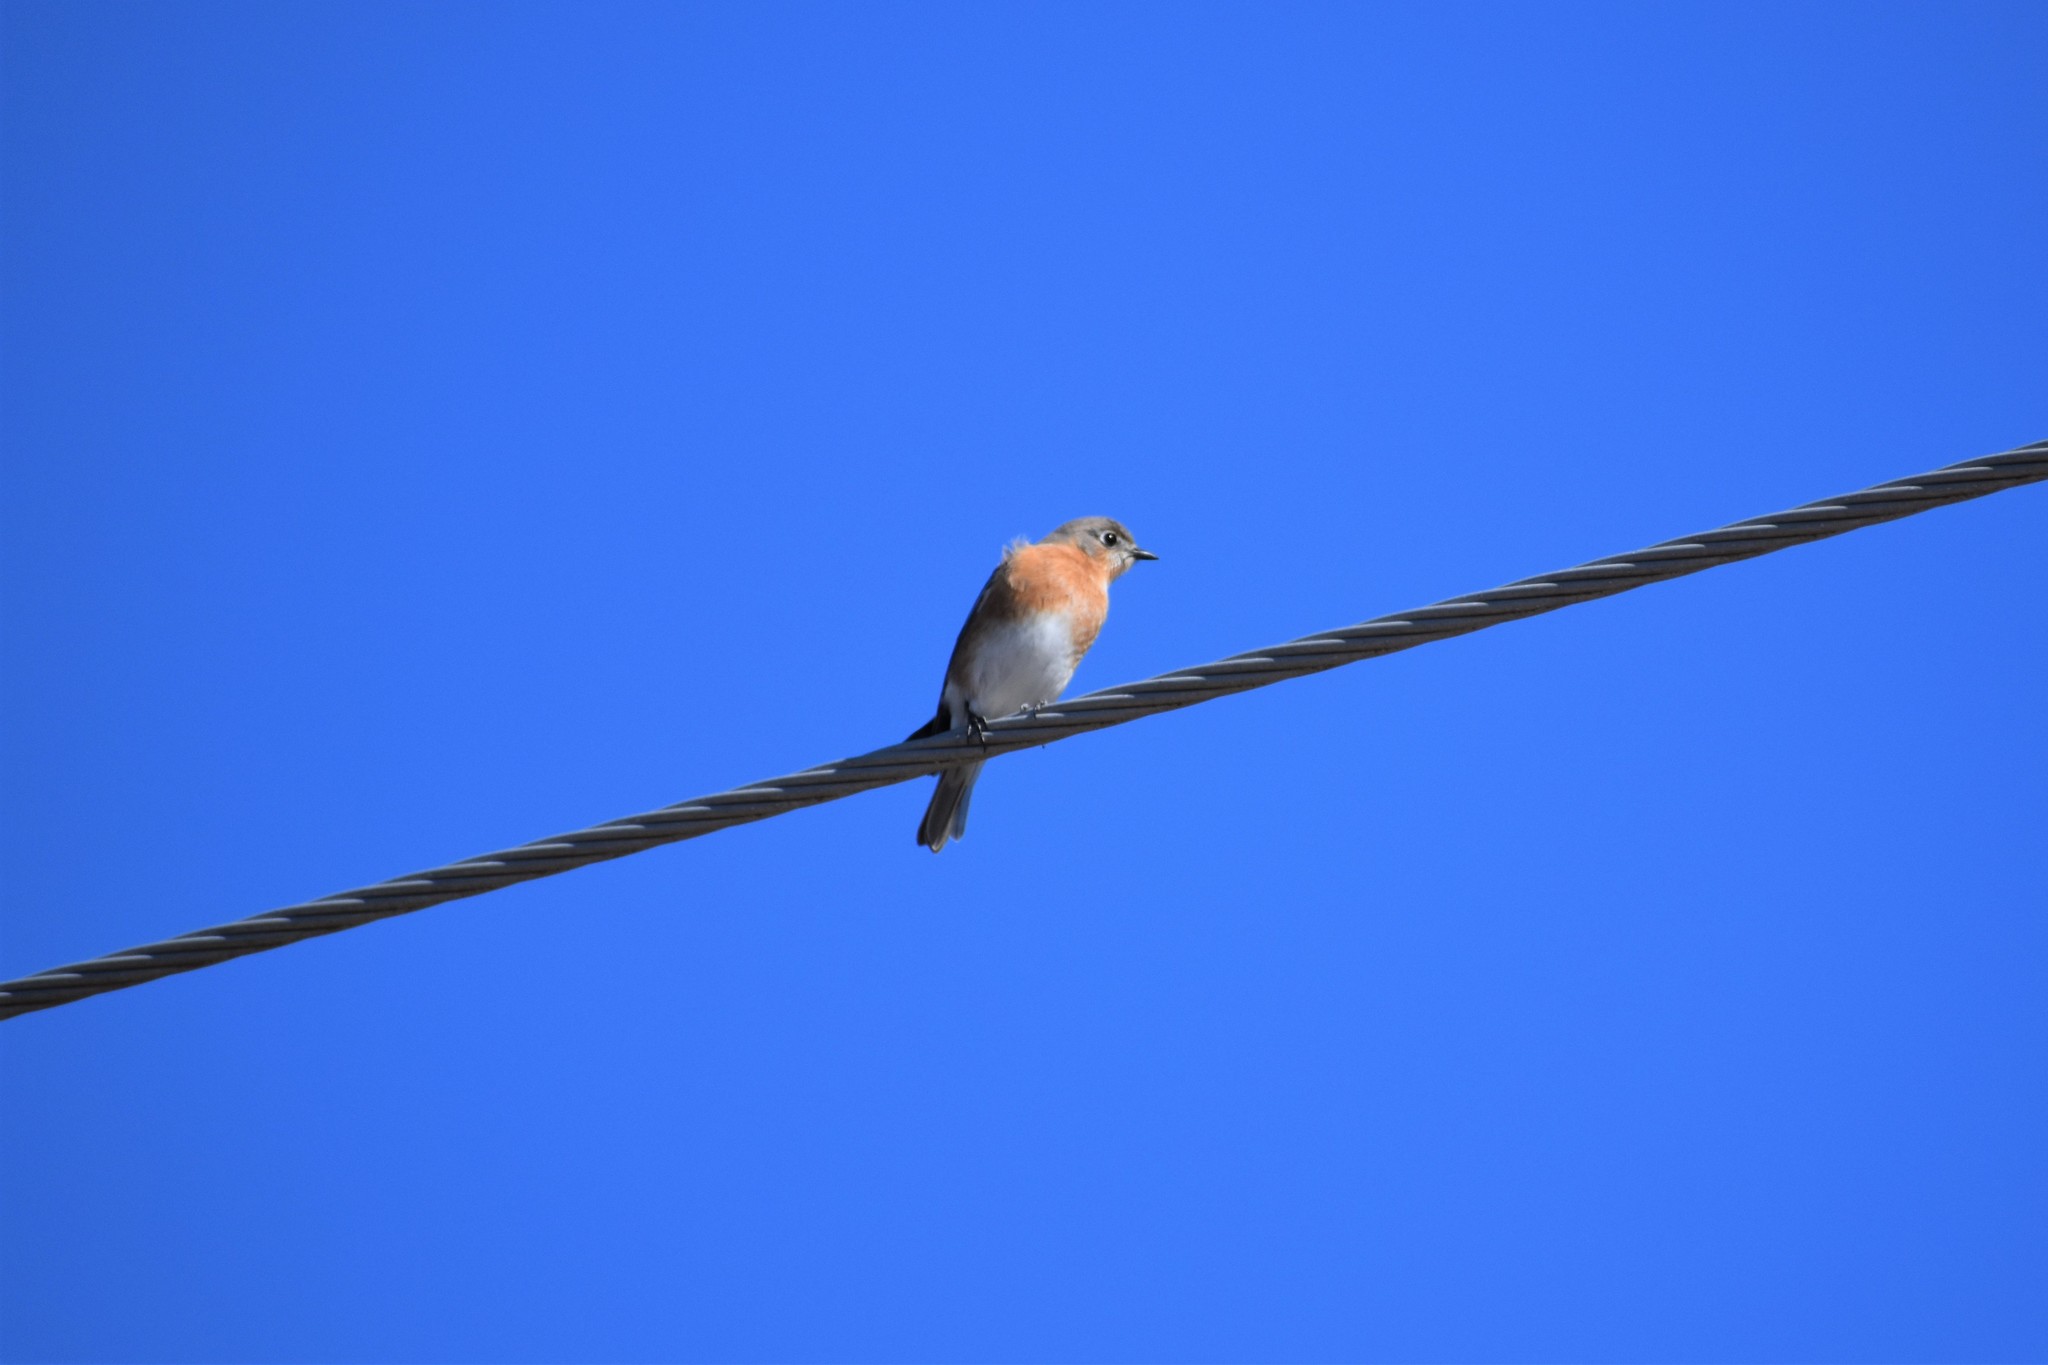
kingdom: Animalia
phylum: Chordata
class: Aves
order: Passeriformes
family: Turdidae
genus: Sialia
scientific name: Sialia sialis
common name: Eastern bluebird
